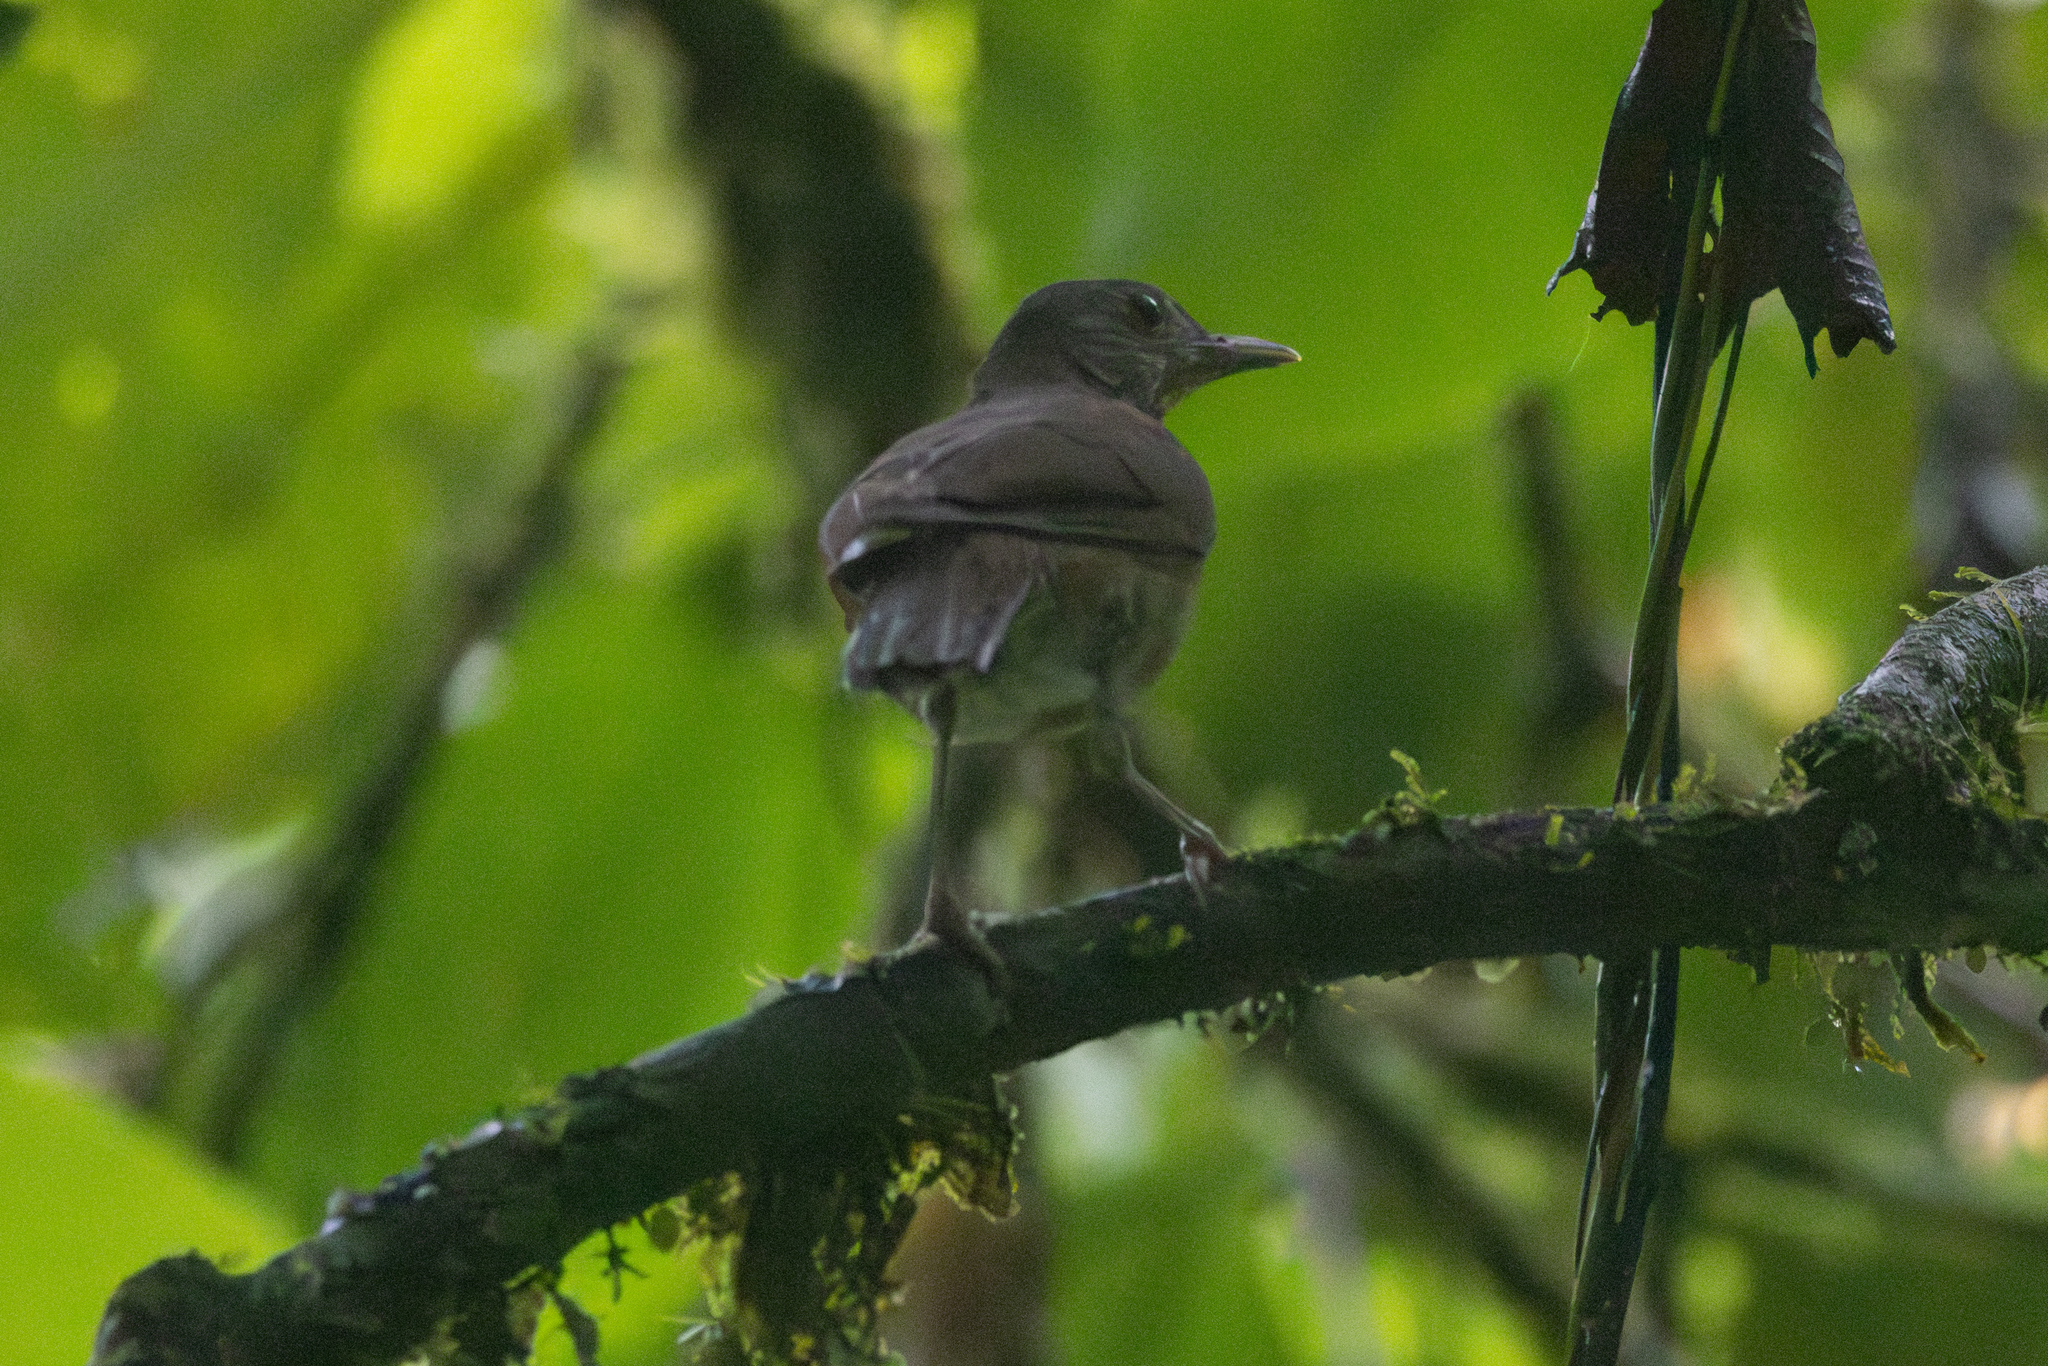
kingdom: Animalia
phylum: Chordata
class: Aves
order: Passeriformes
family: Turdidae
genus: Turdus
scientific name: Turdus leucomelas
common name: Pale-breasted thrush
